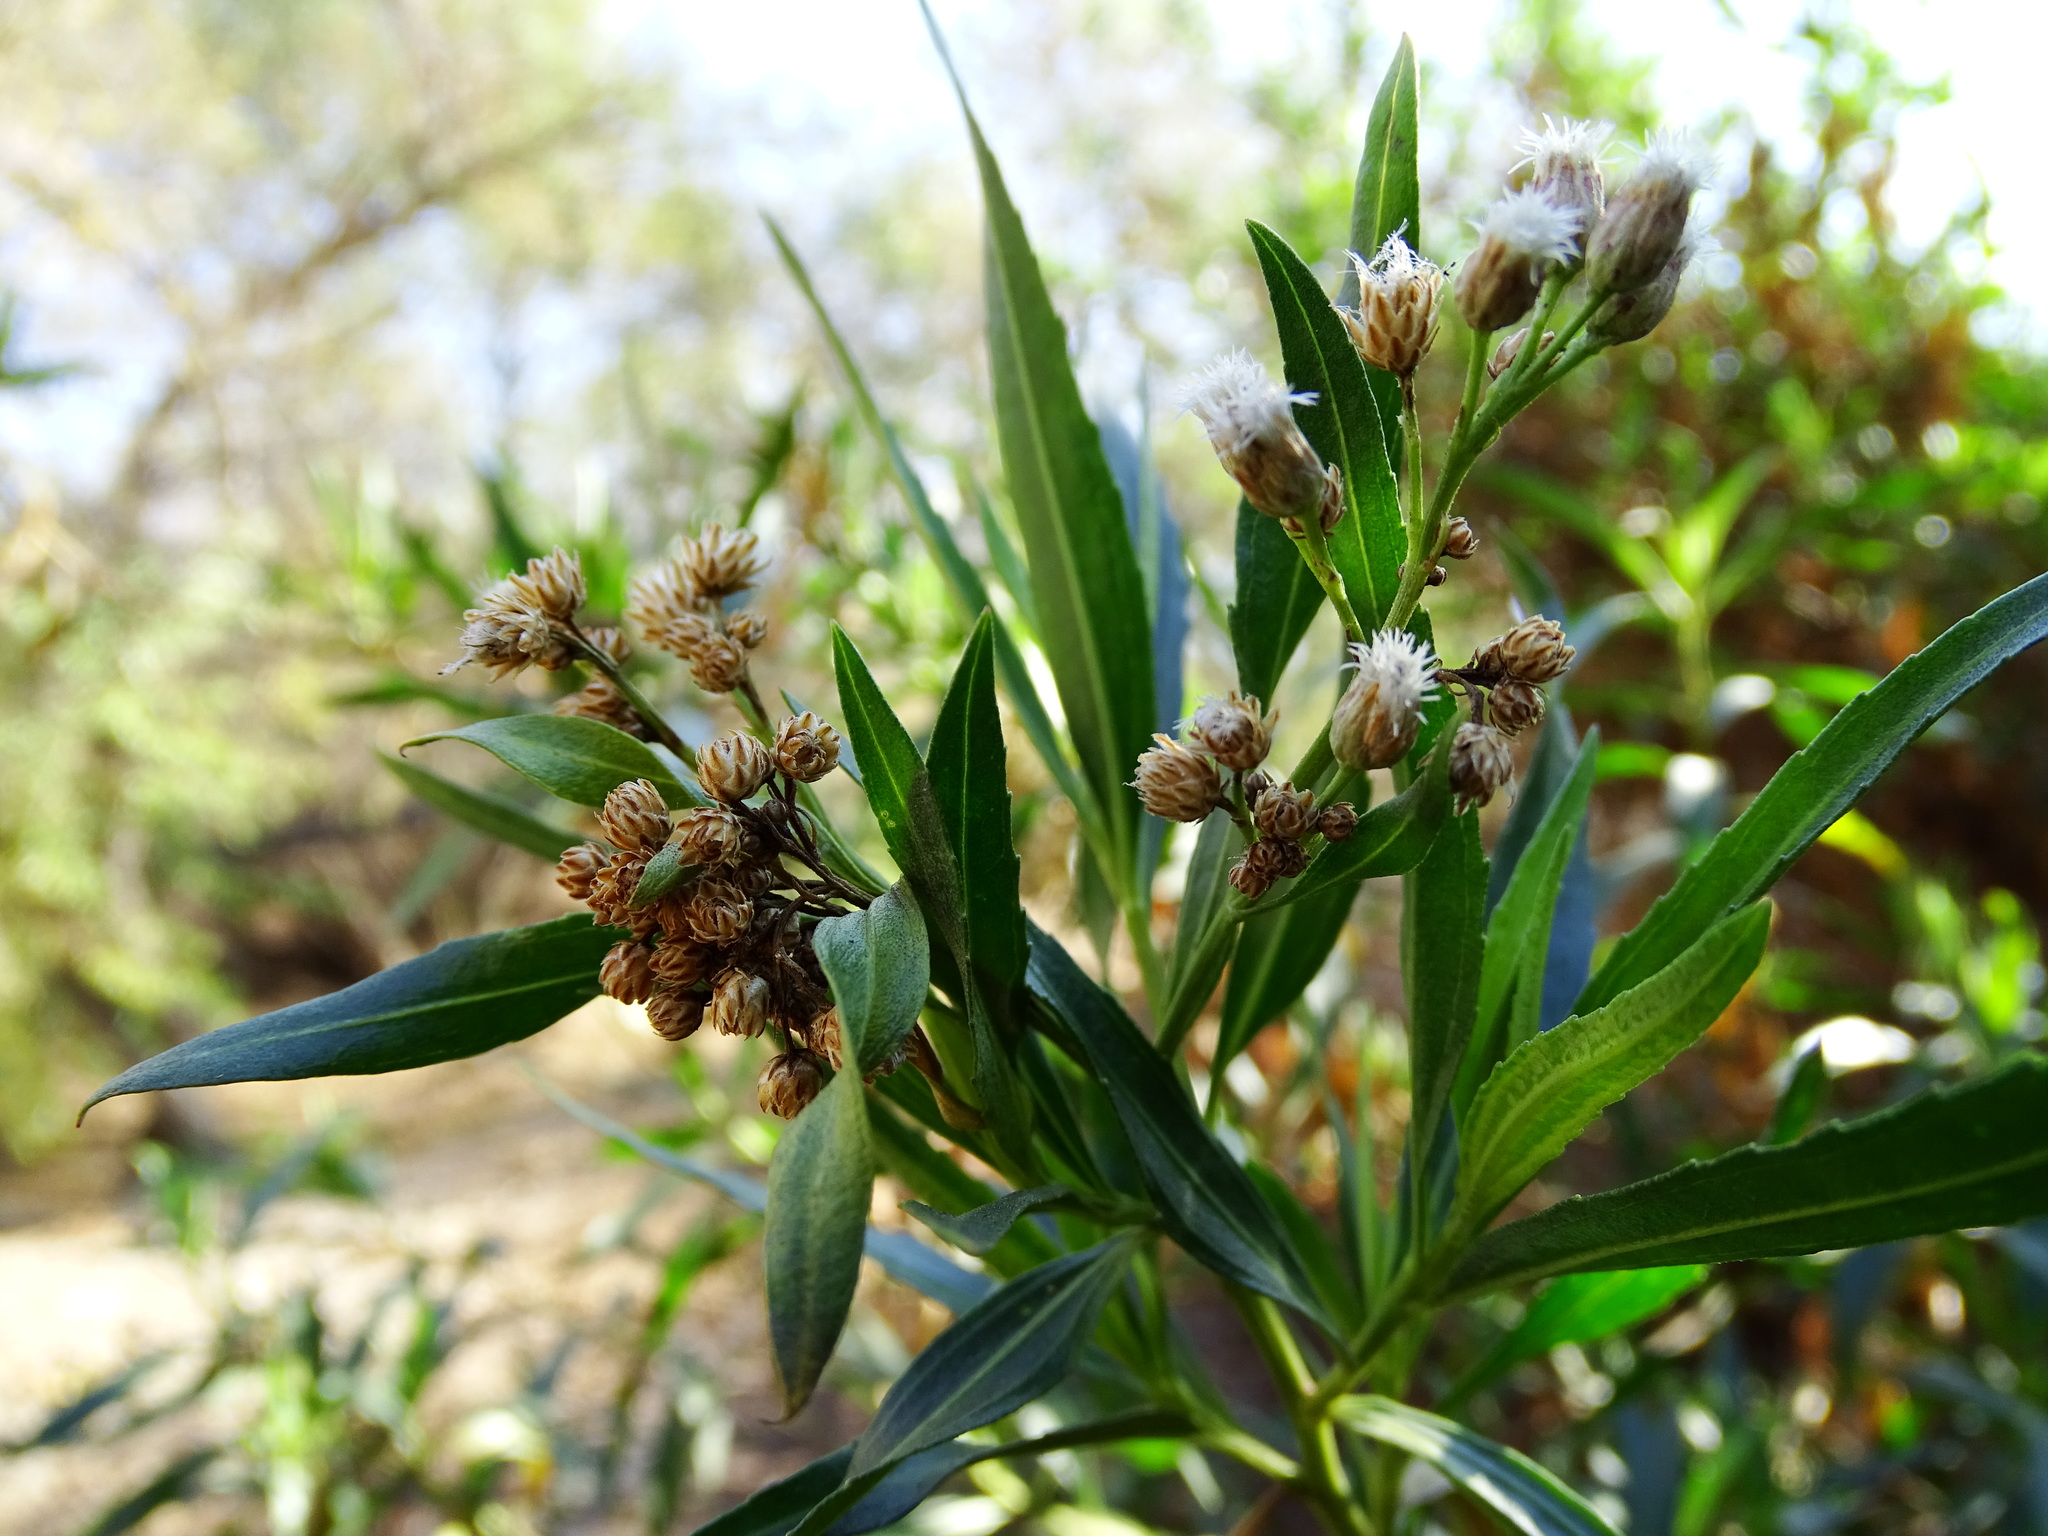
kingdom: Plantae
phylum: Tracheophyta
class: Magnoliopsida
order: Asterales
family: Asteraceae
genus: Baccharis
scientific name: Baccharis salicifolia
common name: Sticky baccharis
